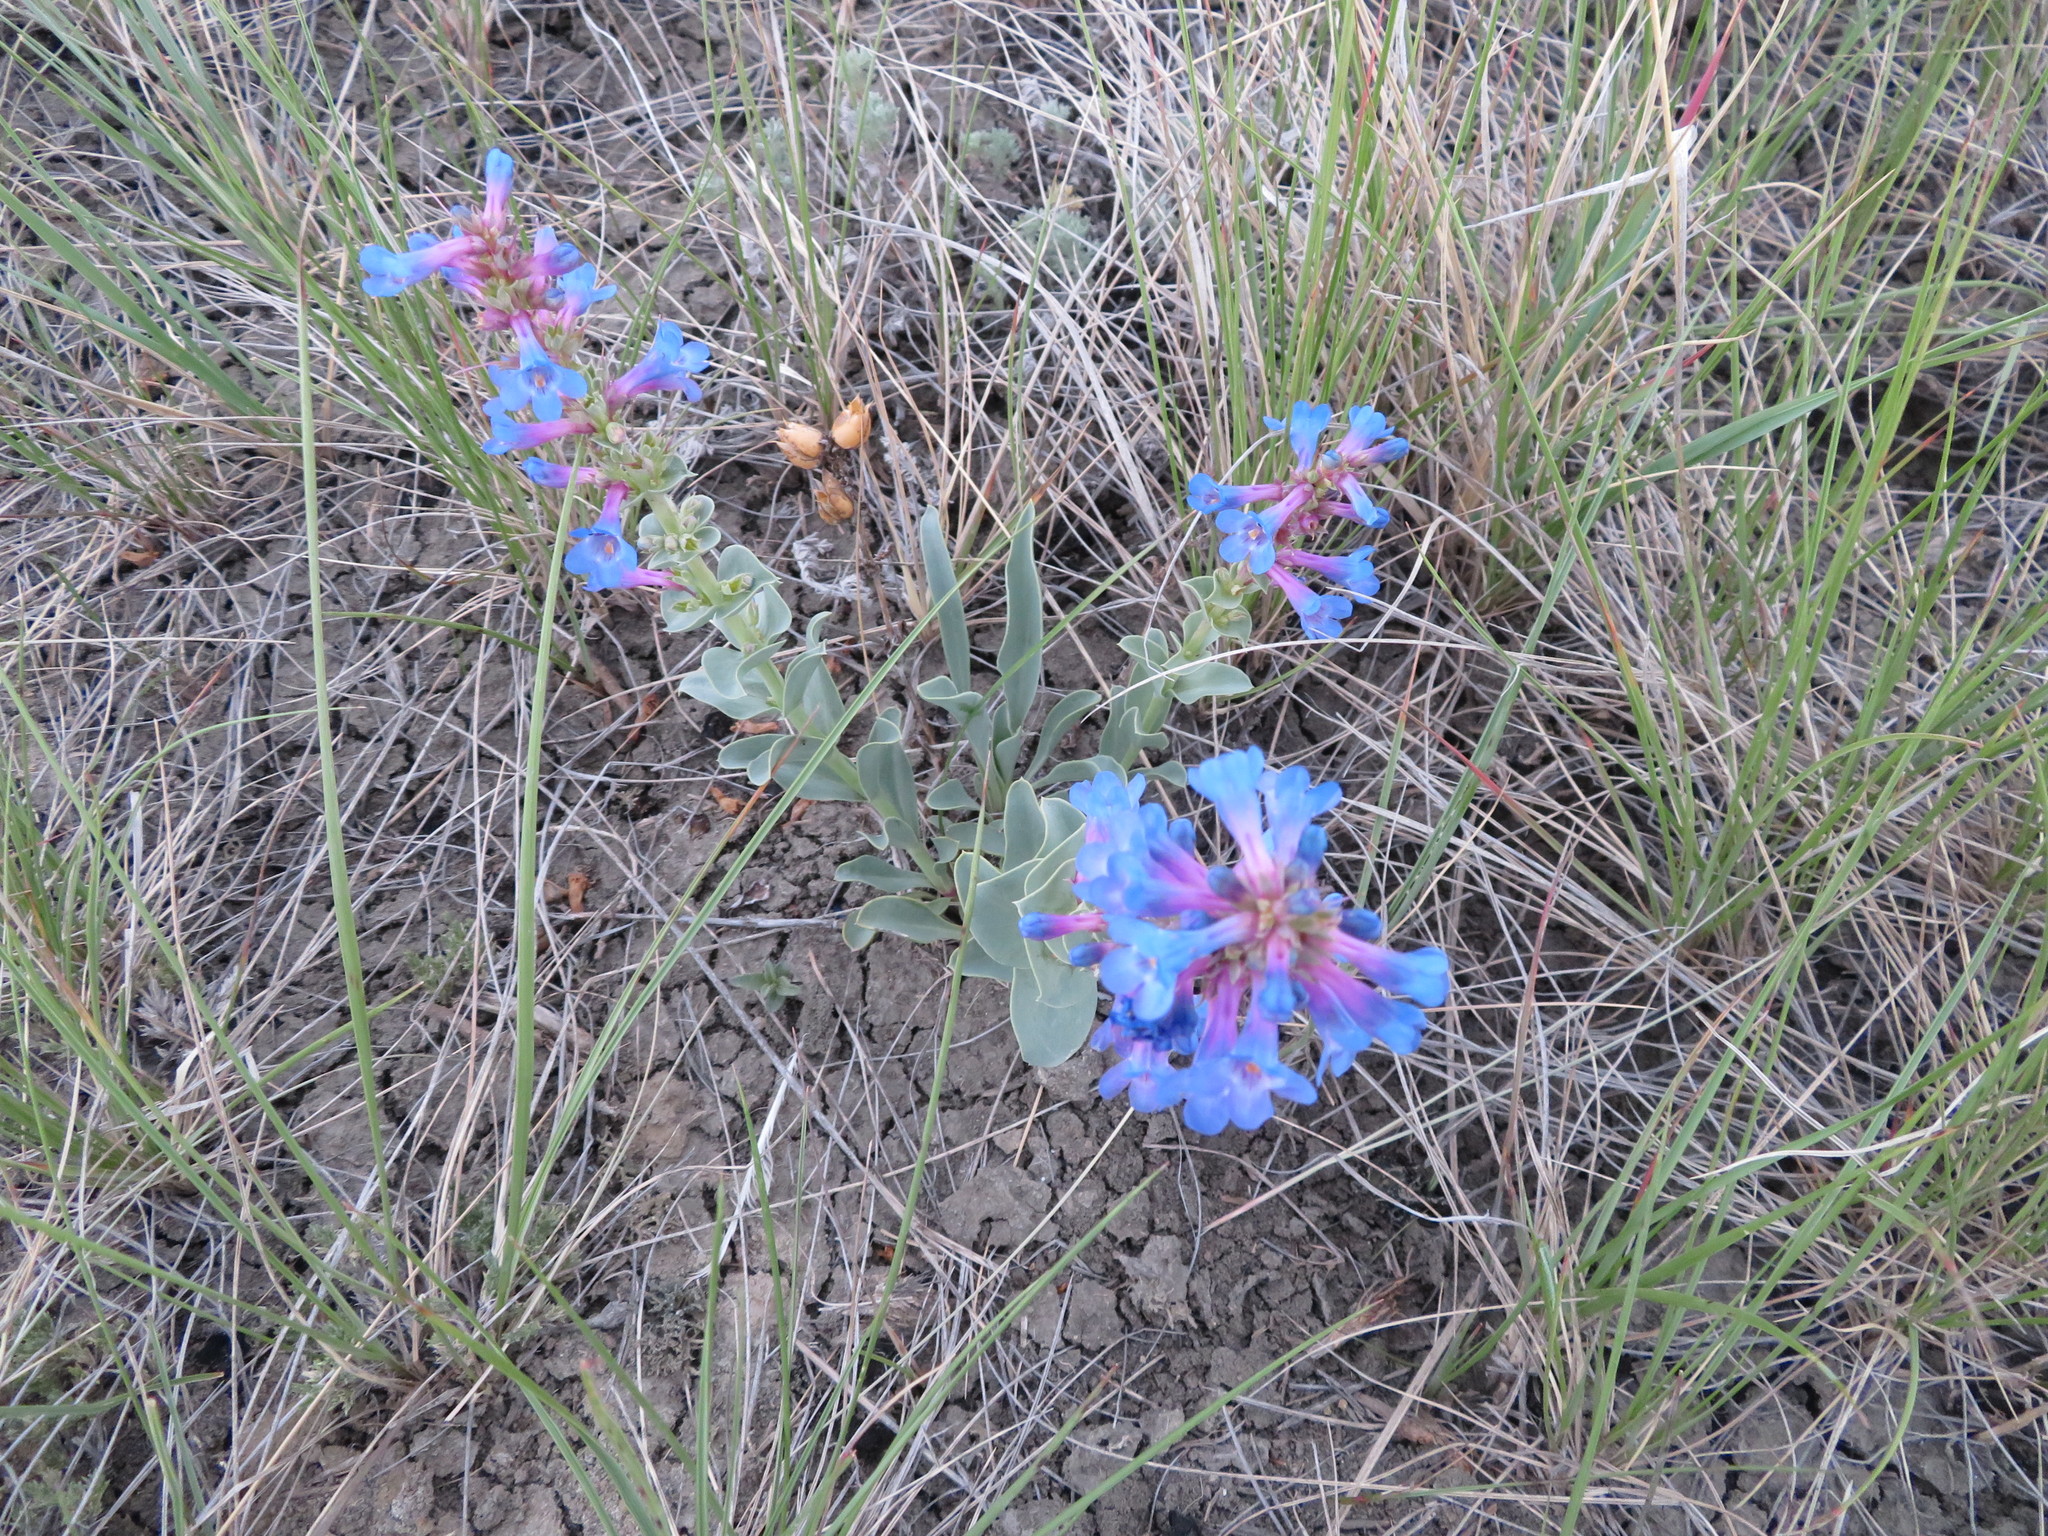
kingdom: Plantae
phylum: Tracheophyta
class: Magnoliopsida
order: Lamiales
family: Plantaginaceae
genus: Penstemon
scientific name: Penstemon nitidus
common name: Shining penstemon
